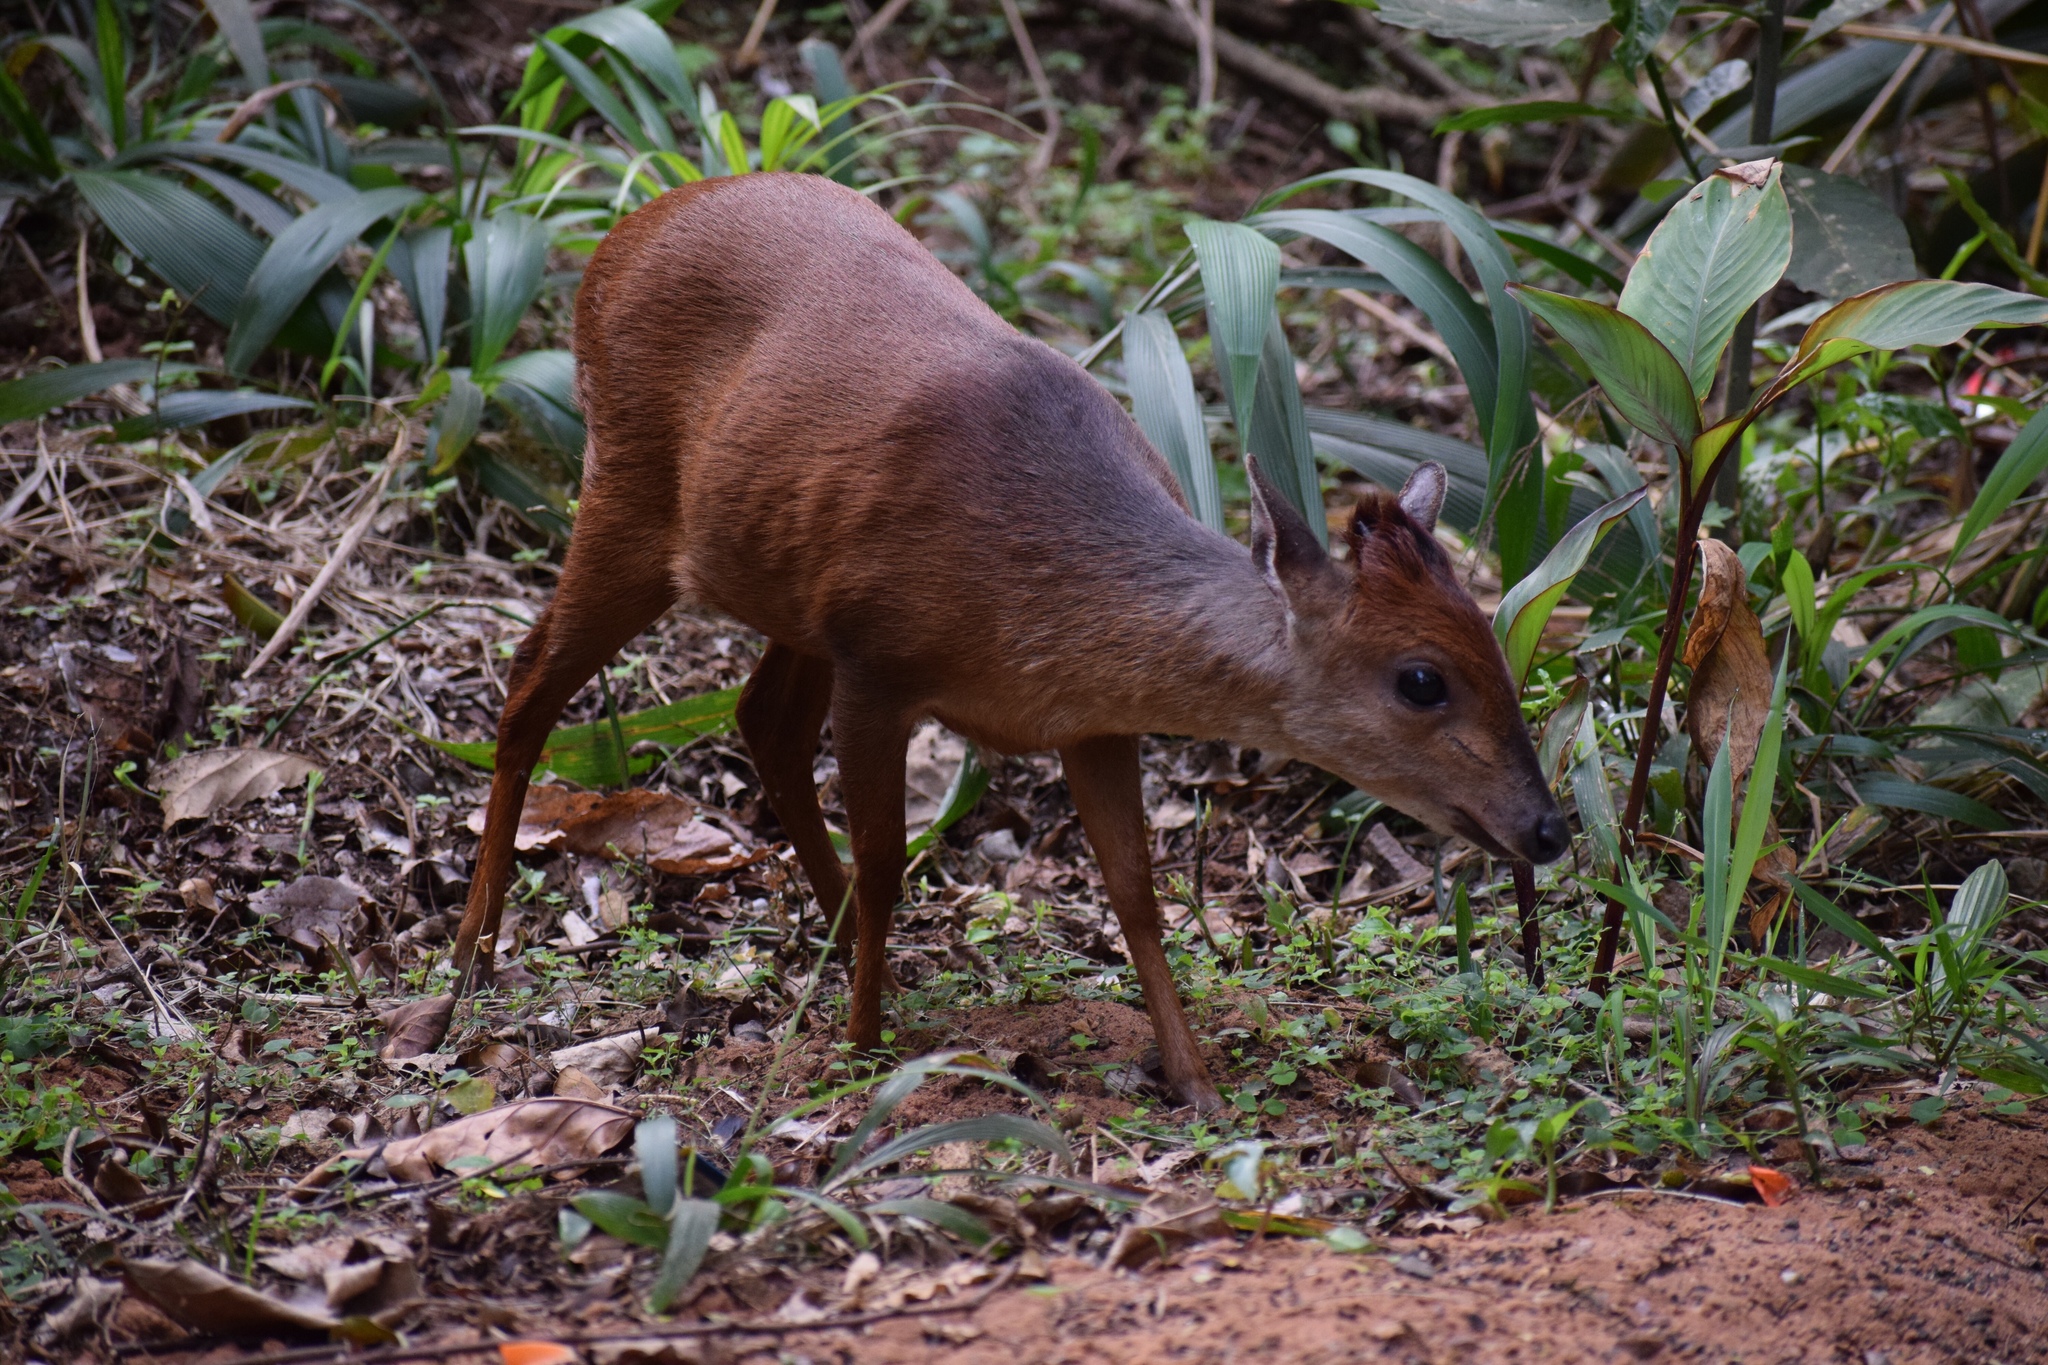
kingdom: Animalia
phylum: Chordata
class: Mammalia
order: Artiodactyla
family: Bovidae
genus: Cephalophus
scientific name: Cephalophus natalensis
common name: Red duiker
